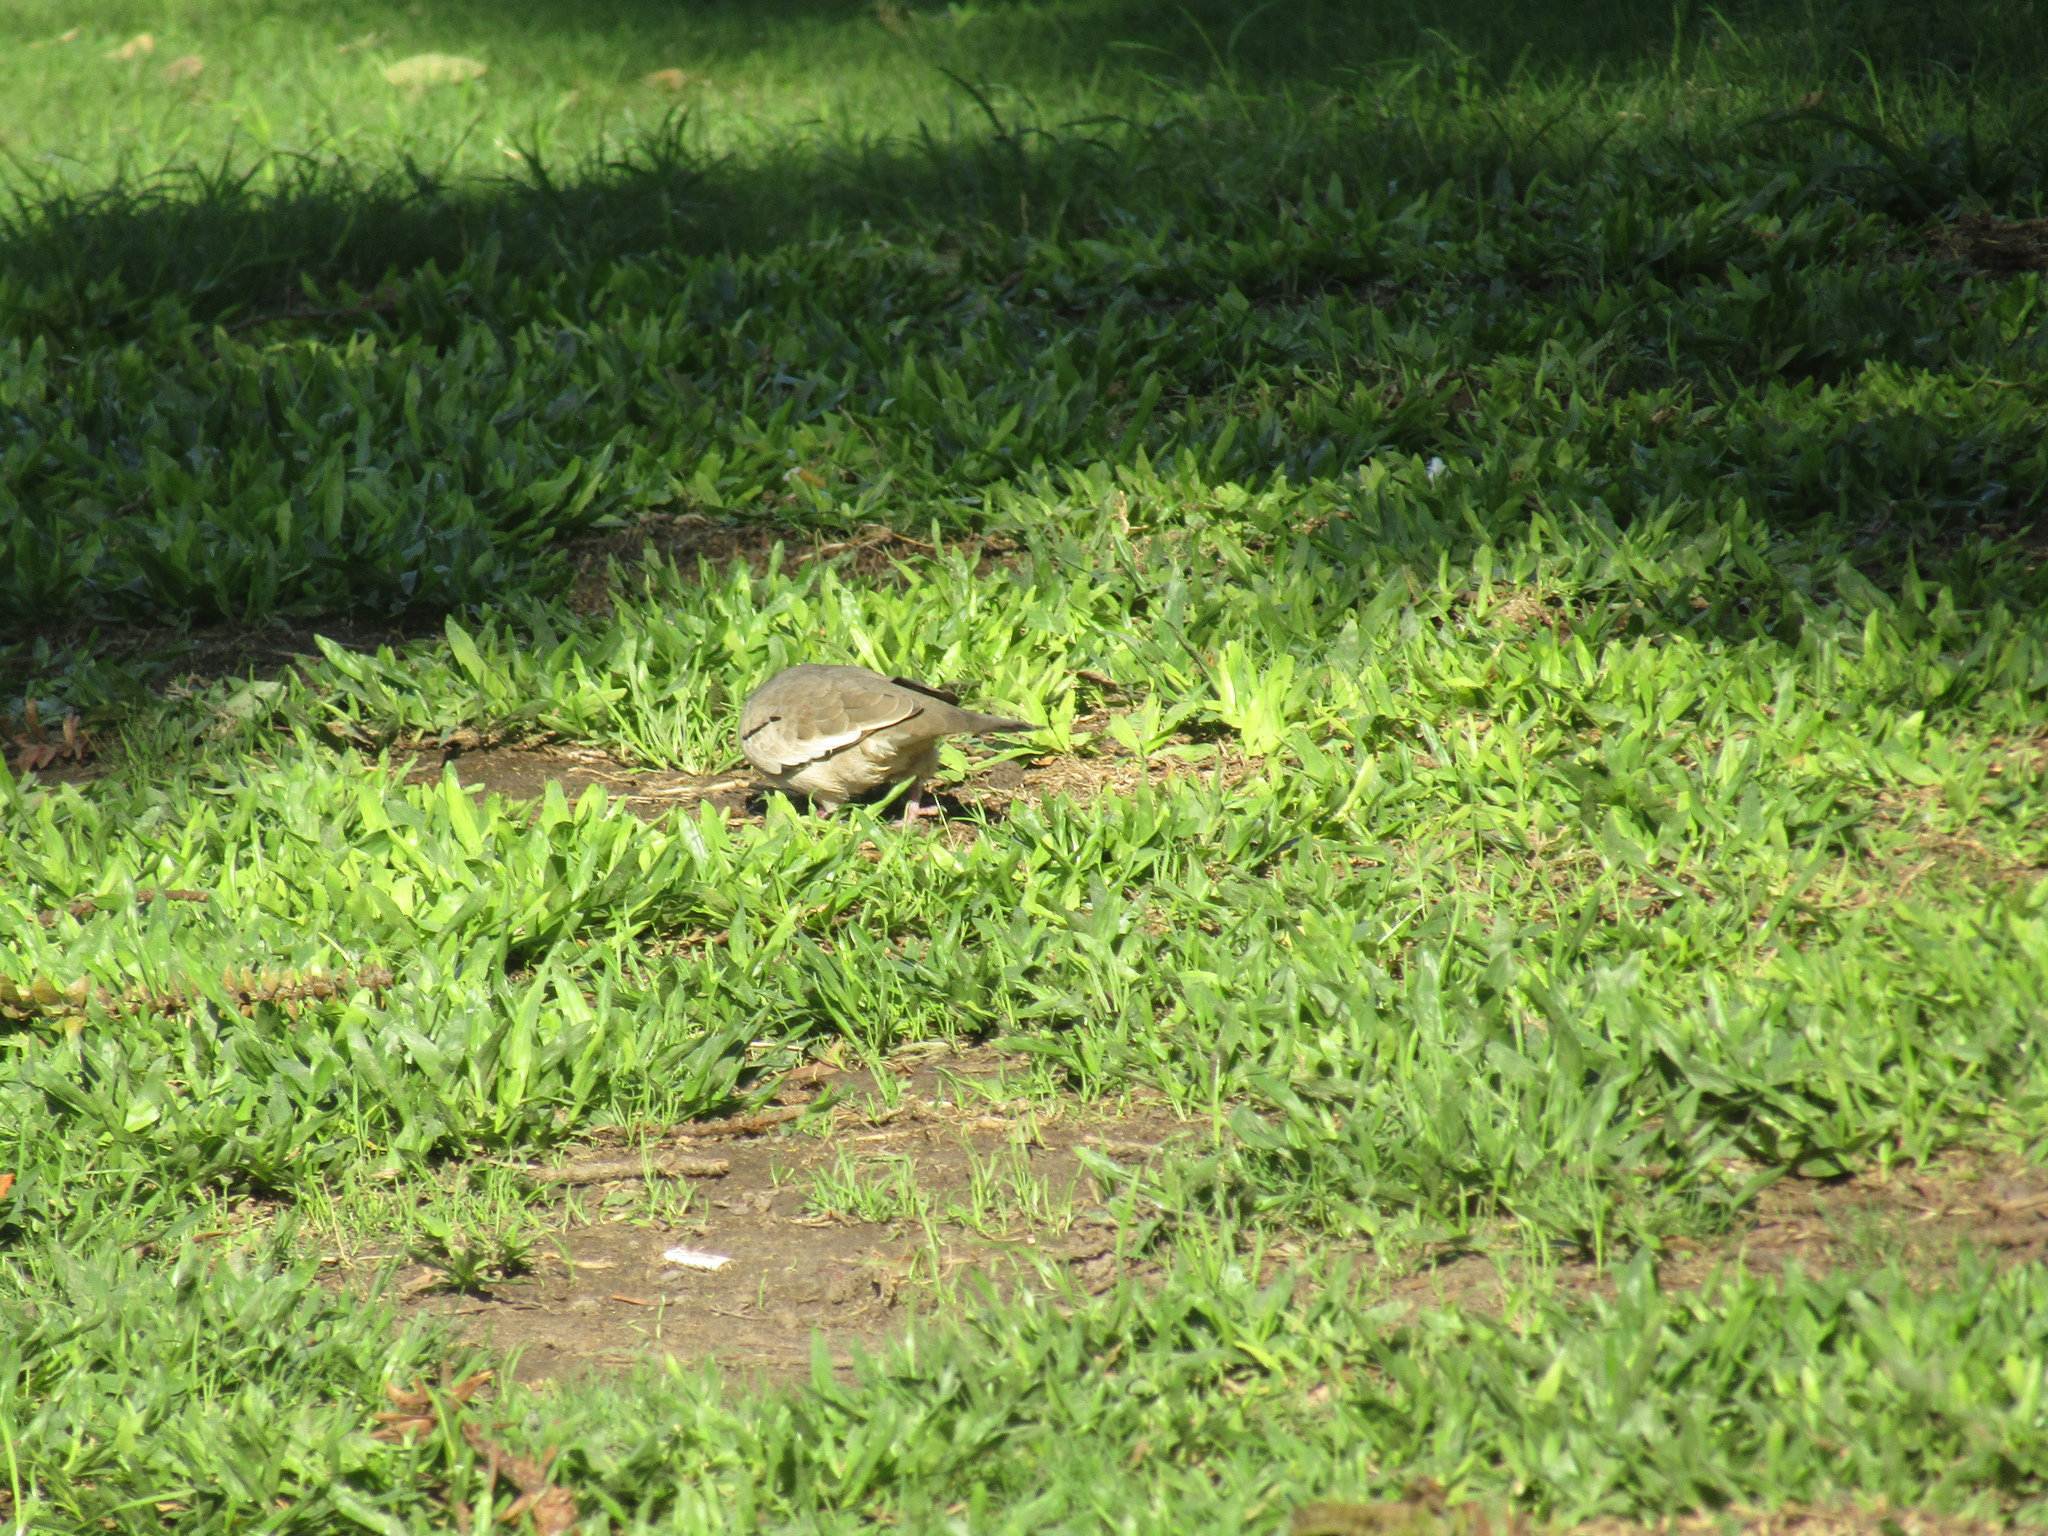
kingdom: Animalia
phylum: Chordata
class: Aves
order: Columbiformes
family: Columbidae
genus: Columbina
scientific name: Columbina picui
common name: Picui ground dove
